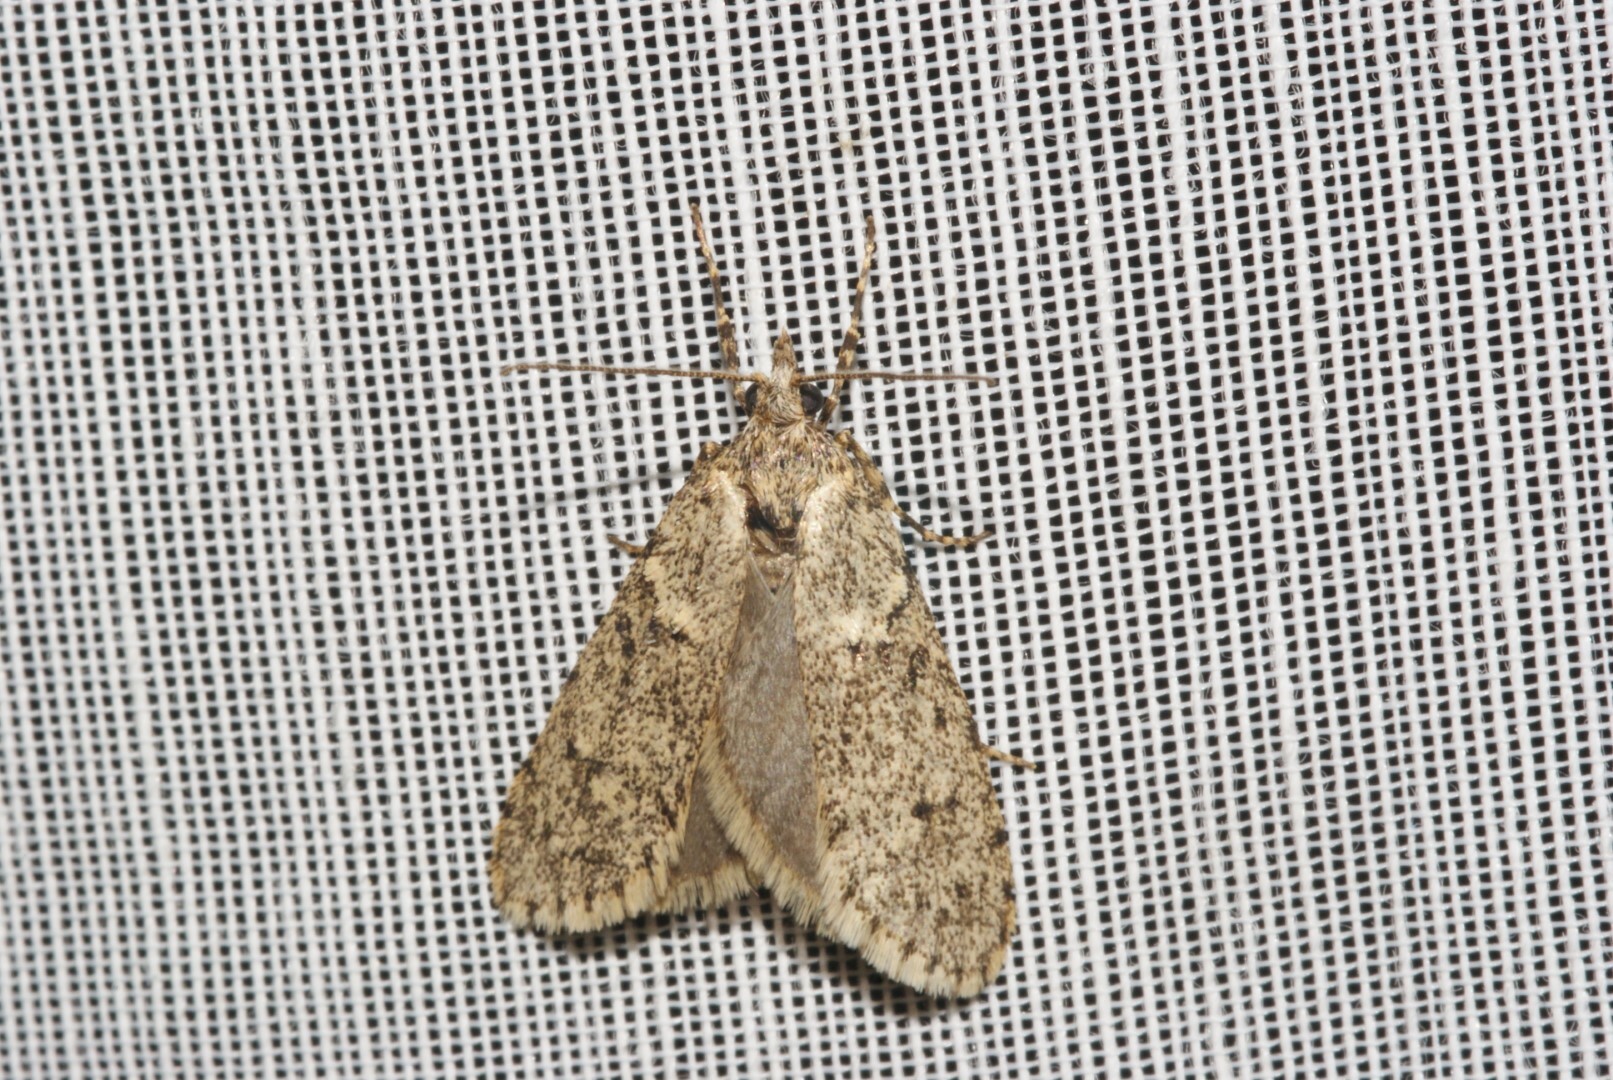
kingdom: Animalia
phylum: Arthropoda
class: Insecta
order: Lepidoptera
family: Lypusidae
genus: Diurnea
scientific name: Diurnea fagella
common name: March tubic
